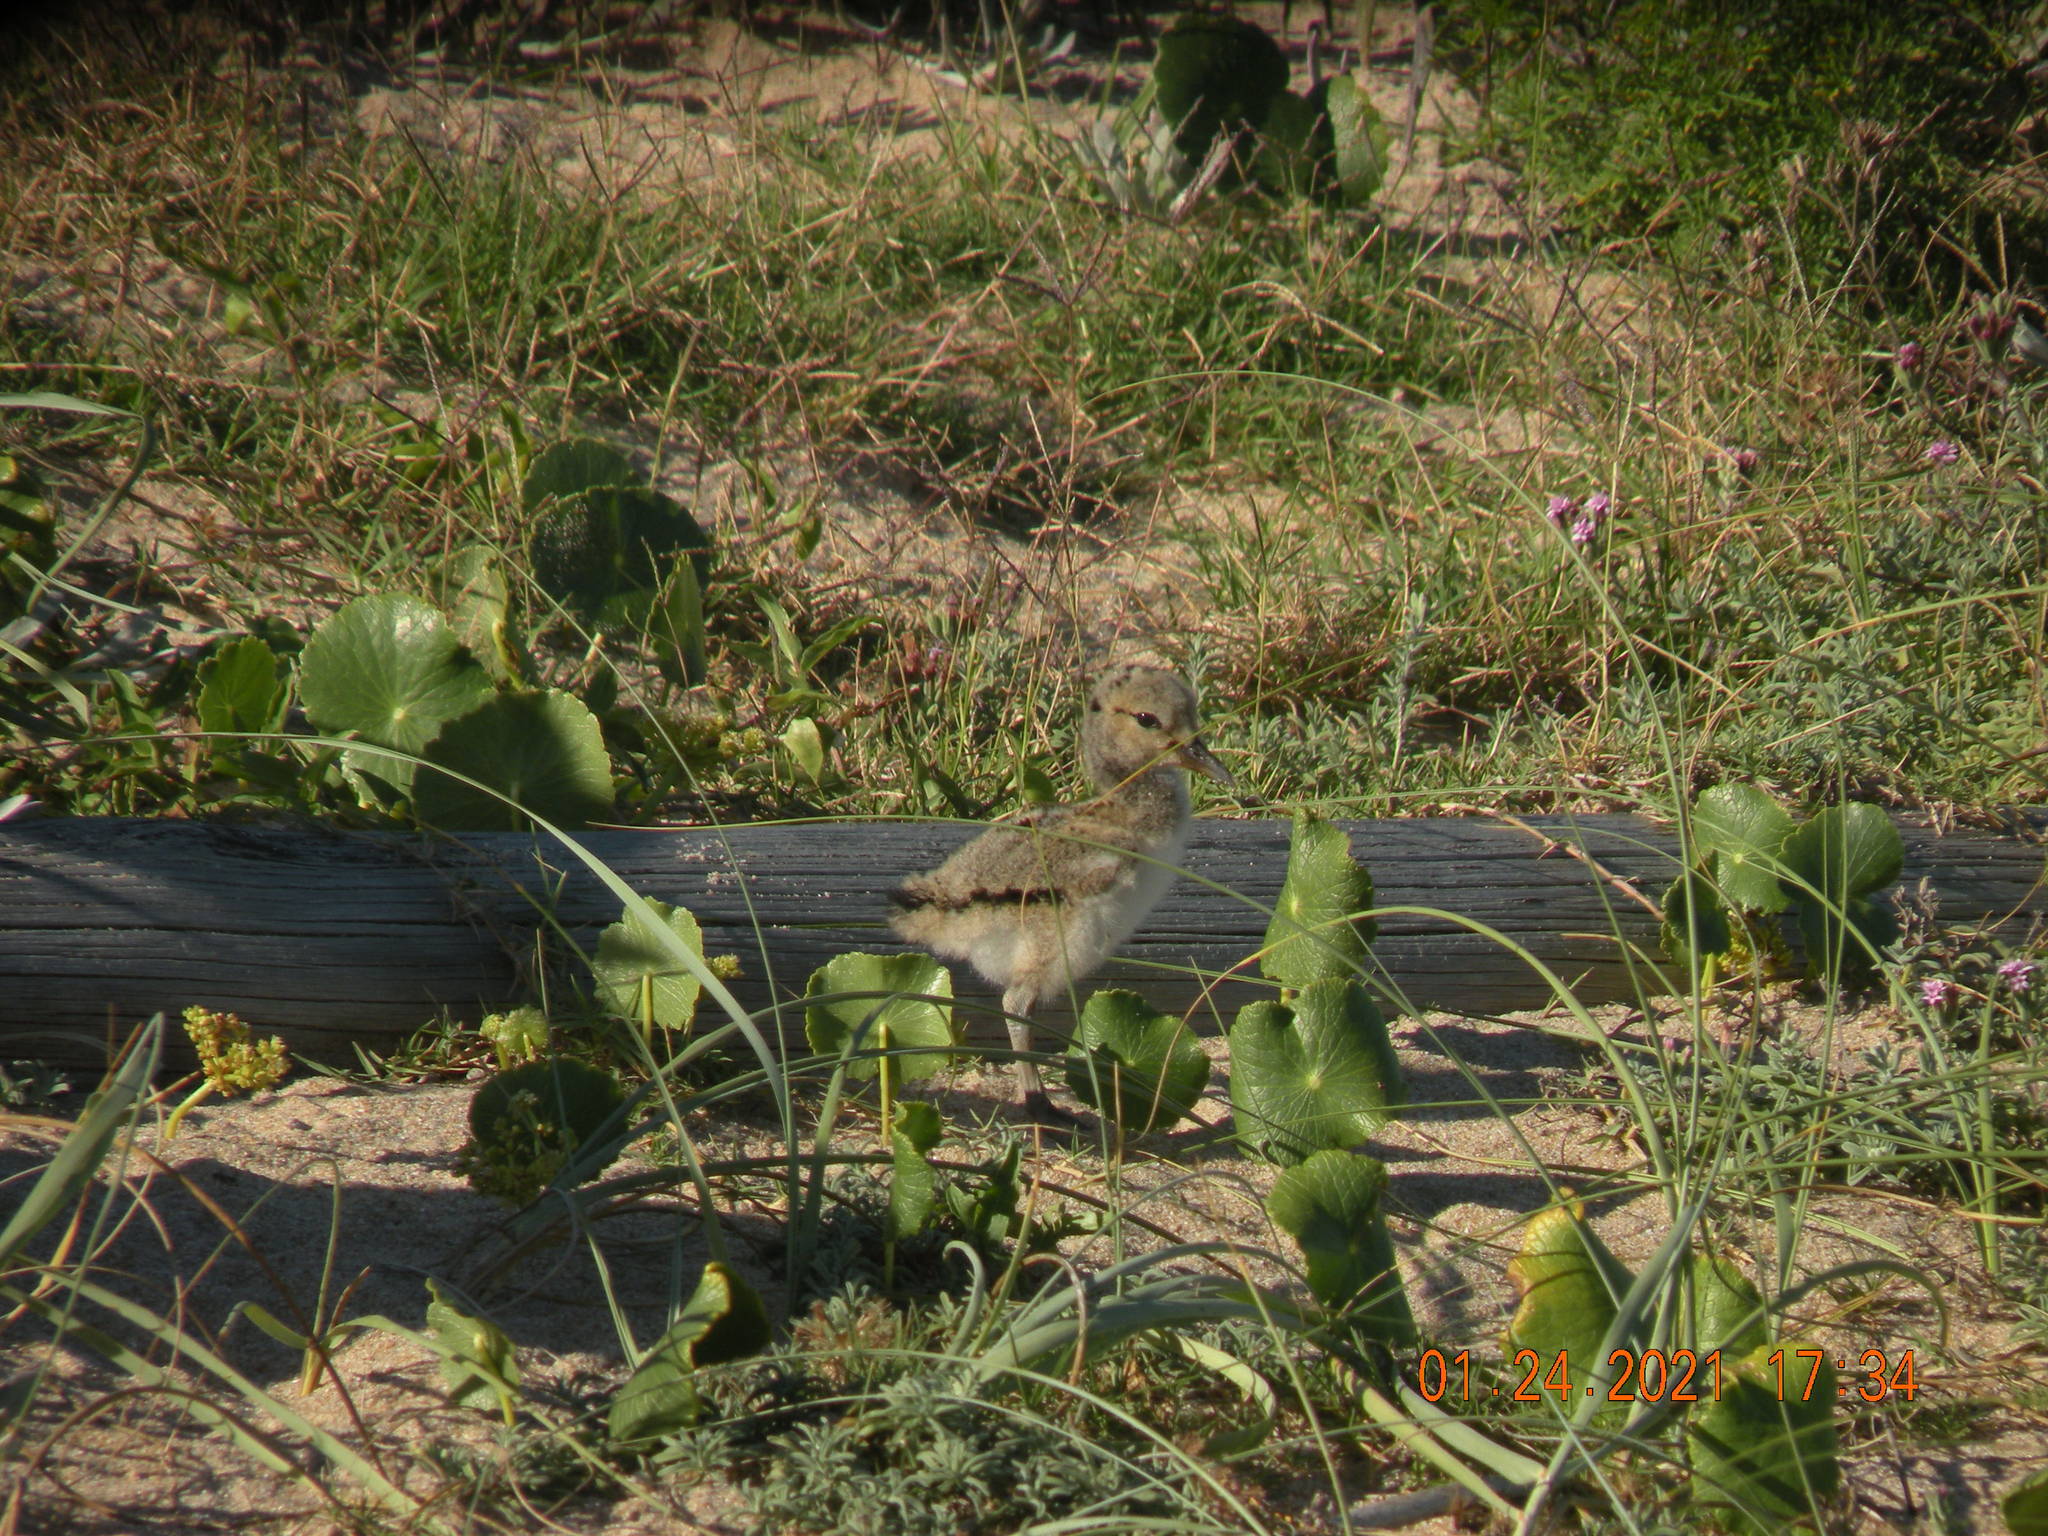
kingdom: Animalia
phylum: Chordata
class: Aves
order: Charadriiformes
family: Haematopodidae
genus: Haematopus
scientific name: Haematopus palliatus
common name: American oystercatcher
